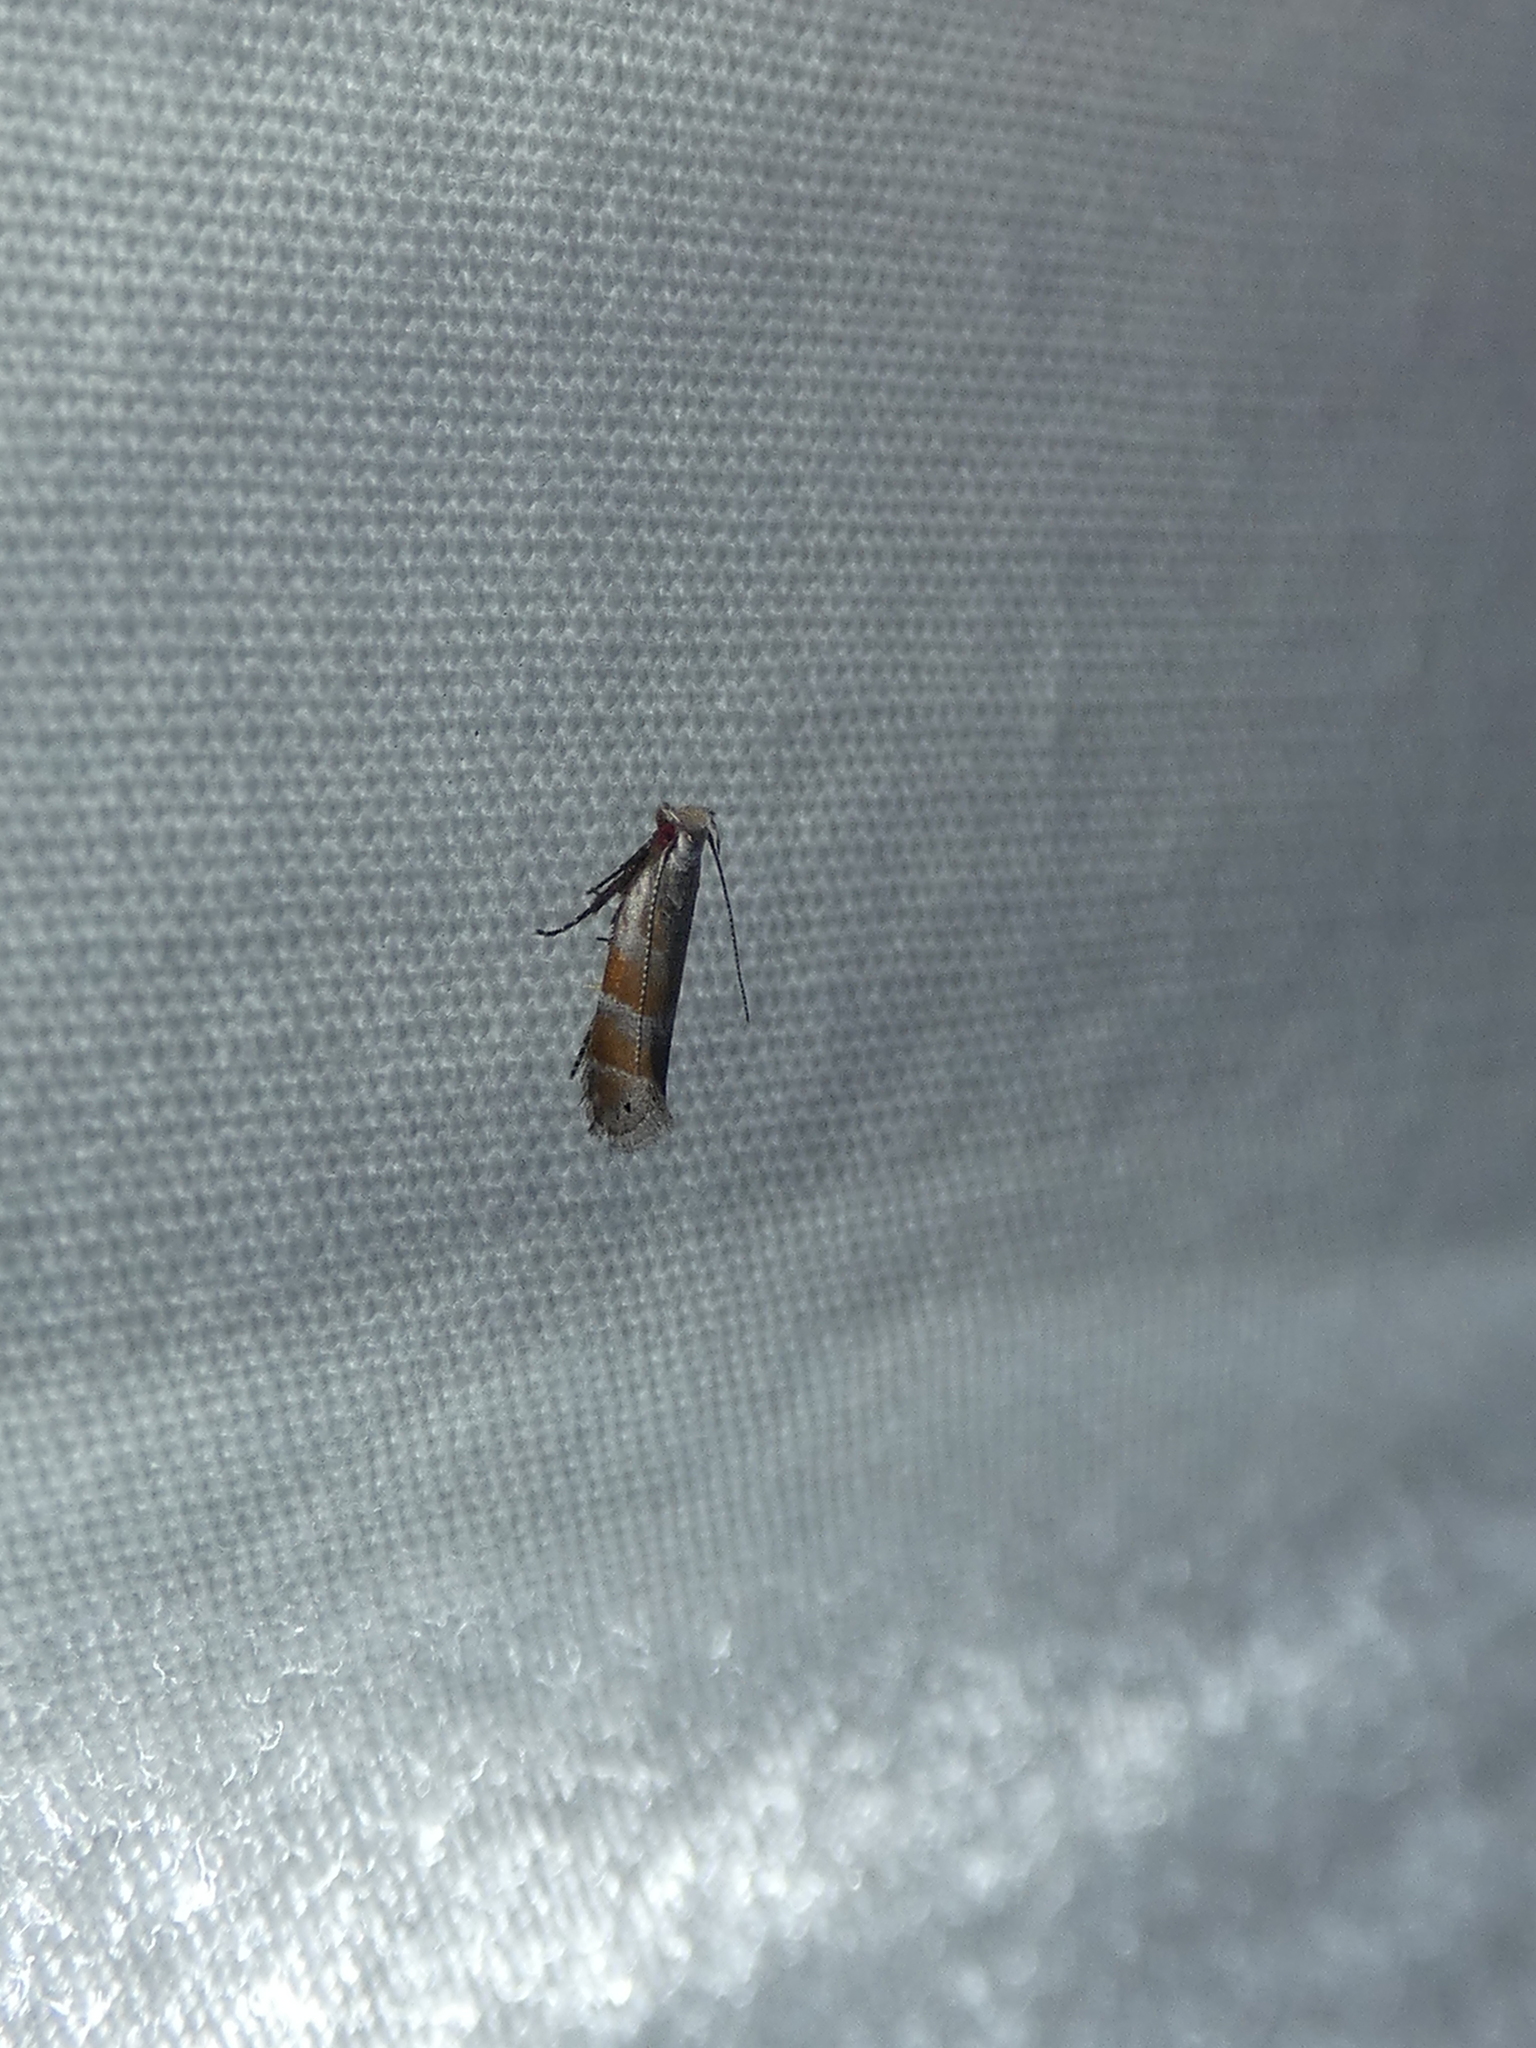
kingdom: Animalia
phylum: Arthropoda
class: Insecta
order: Lepidoptera
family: Gelechiidae
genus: Battaristis
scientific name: Battaristis vittella
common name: Orange stripe-backed moth
